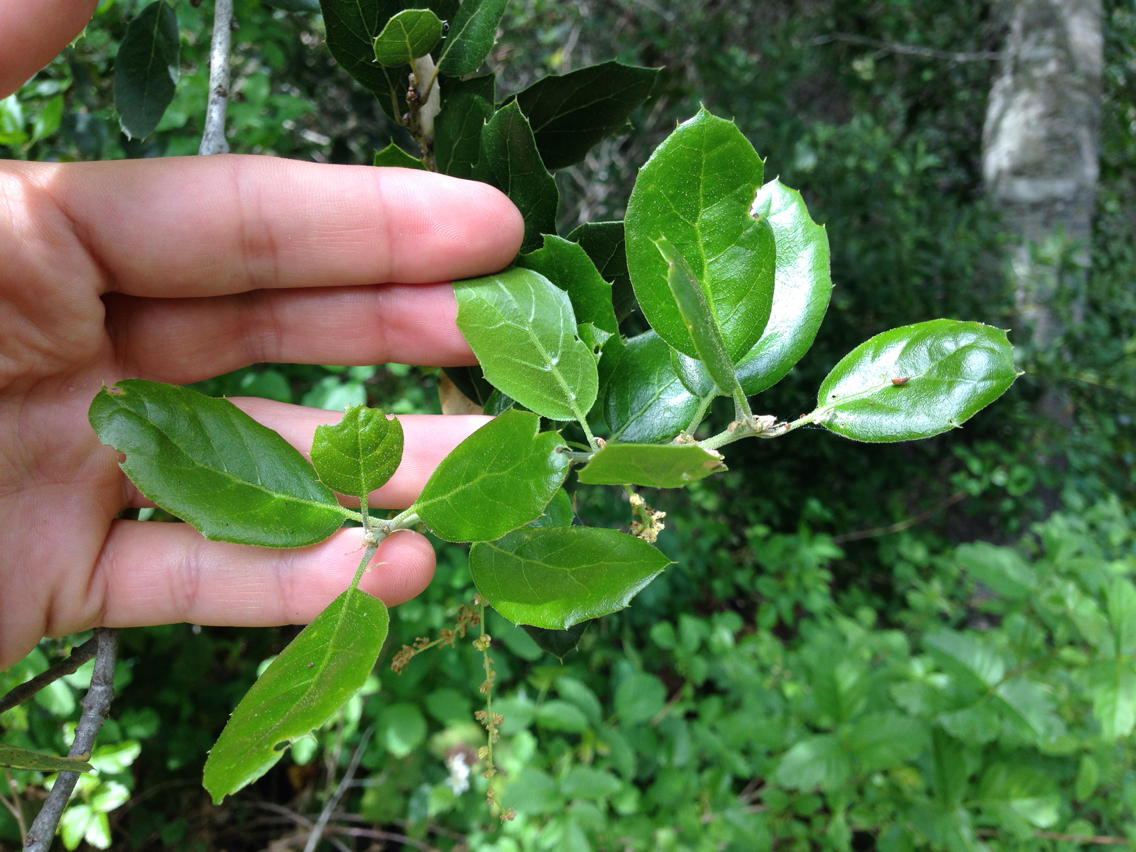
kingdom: Plantae
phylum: Tracheophyta
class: Magnoliopsida
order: Fagales
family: Fagaceae
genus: Quercus
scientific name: Quercus agrifolia
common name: California live oak
